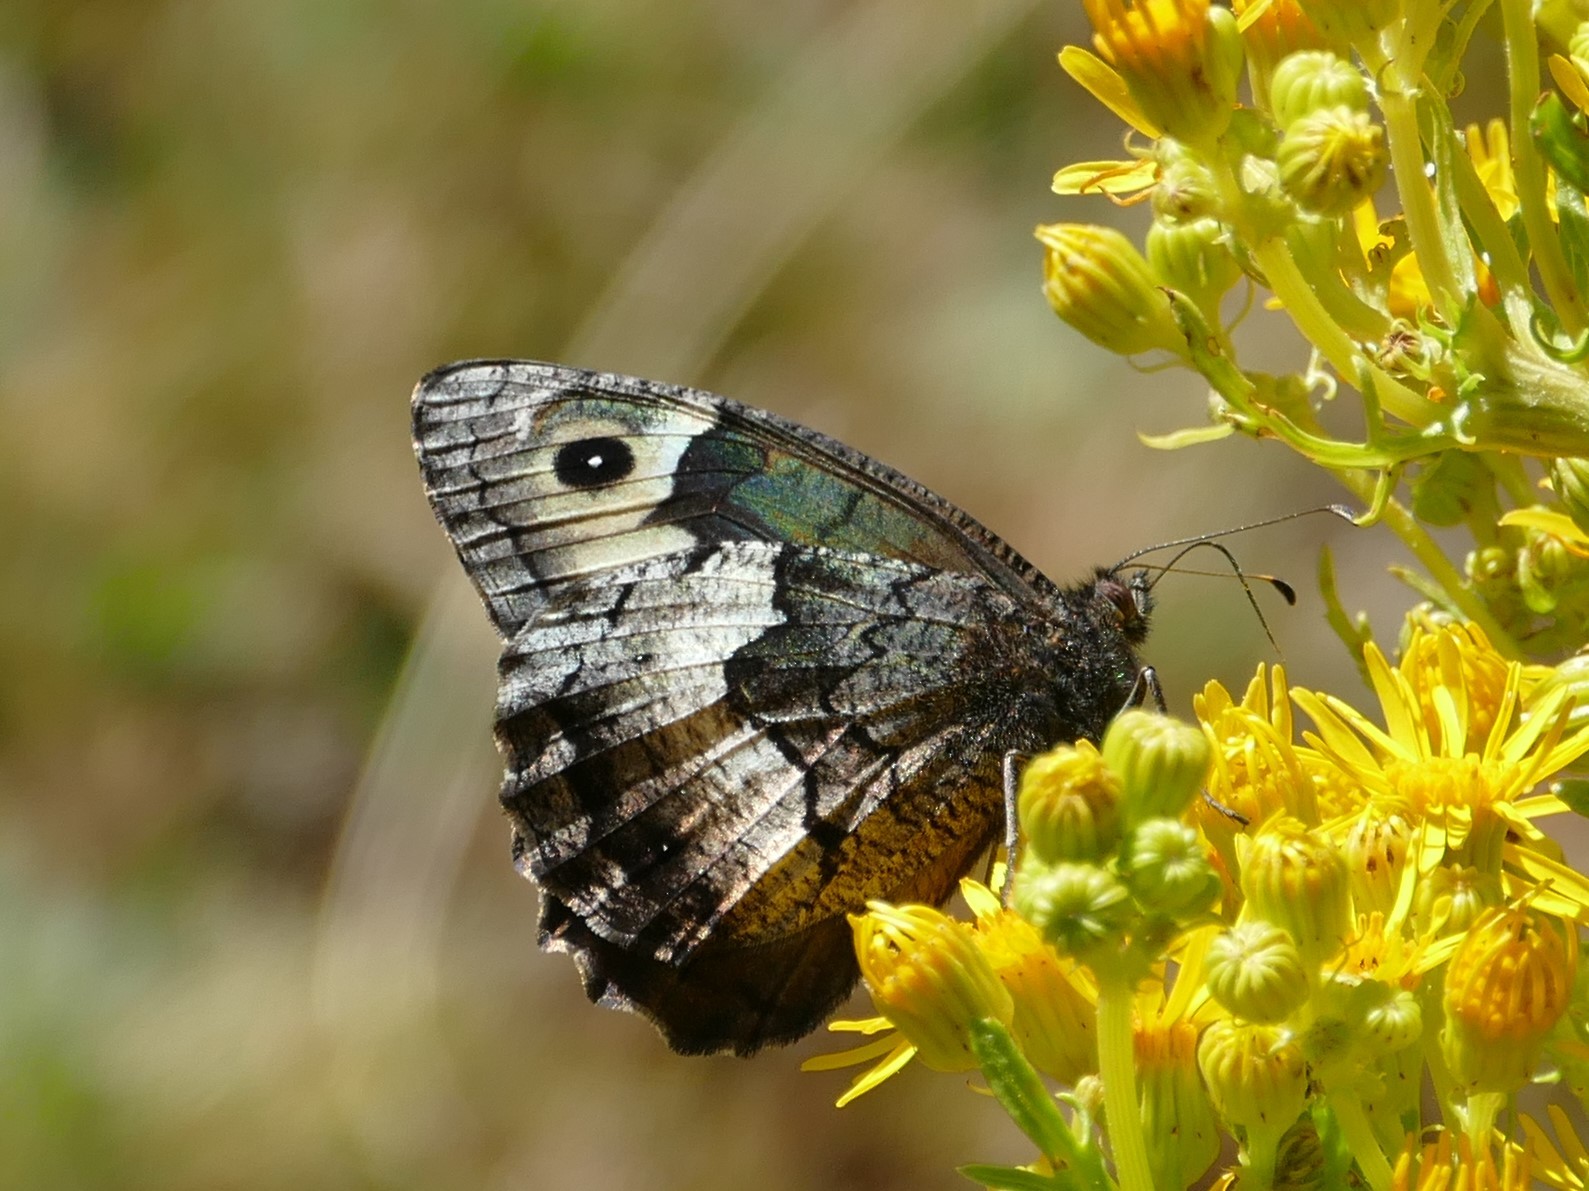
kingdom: Animalia
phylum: Arthropoda
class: Insecta
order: Lepidoptera
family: Nymphalidae
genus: Hipparchia
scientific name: Hipparchia hermione
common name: Rock grayling
